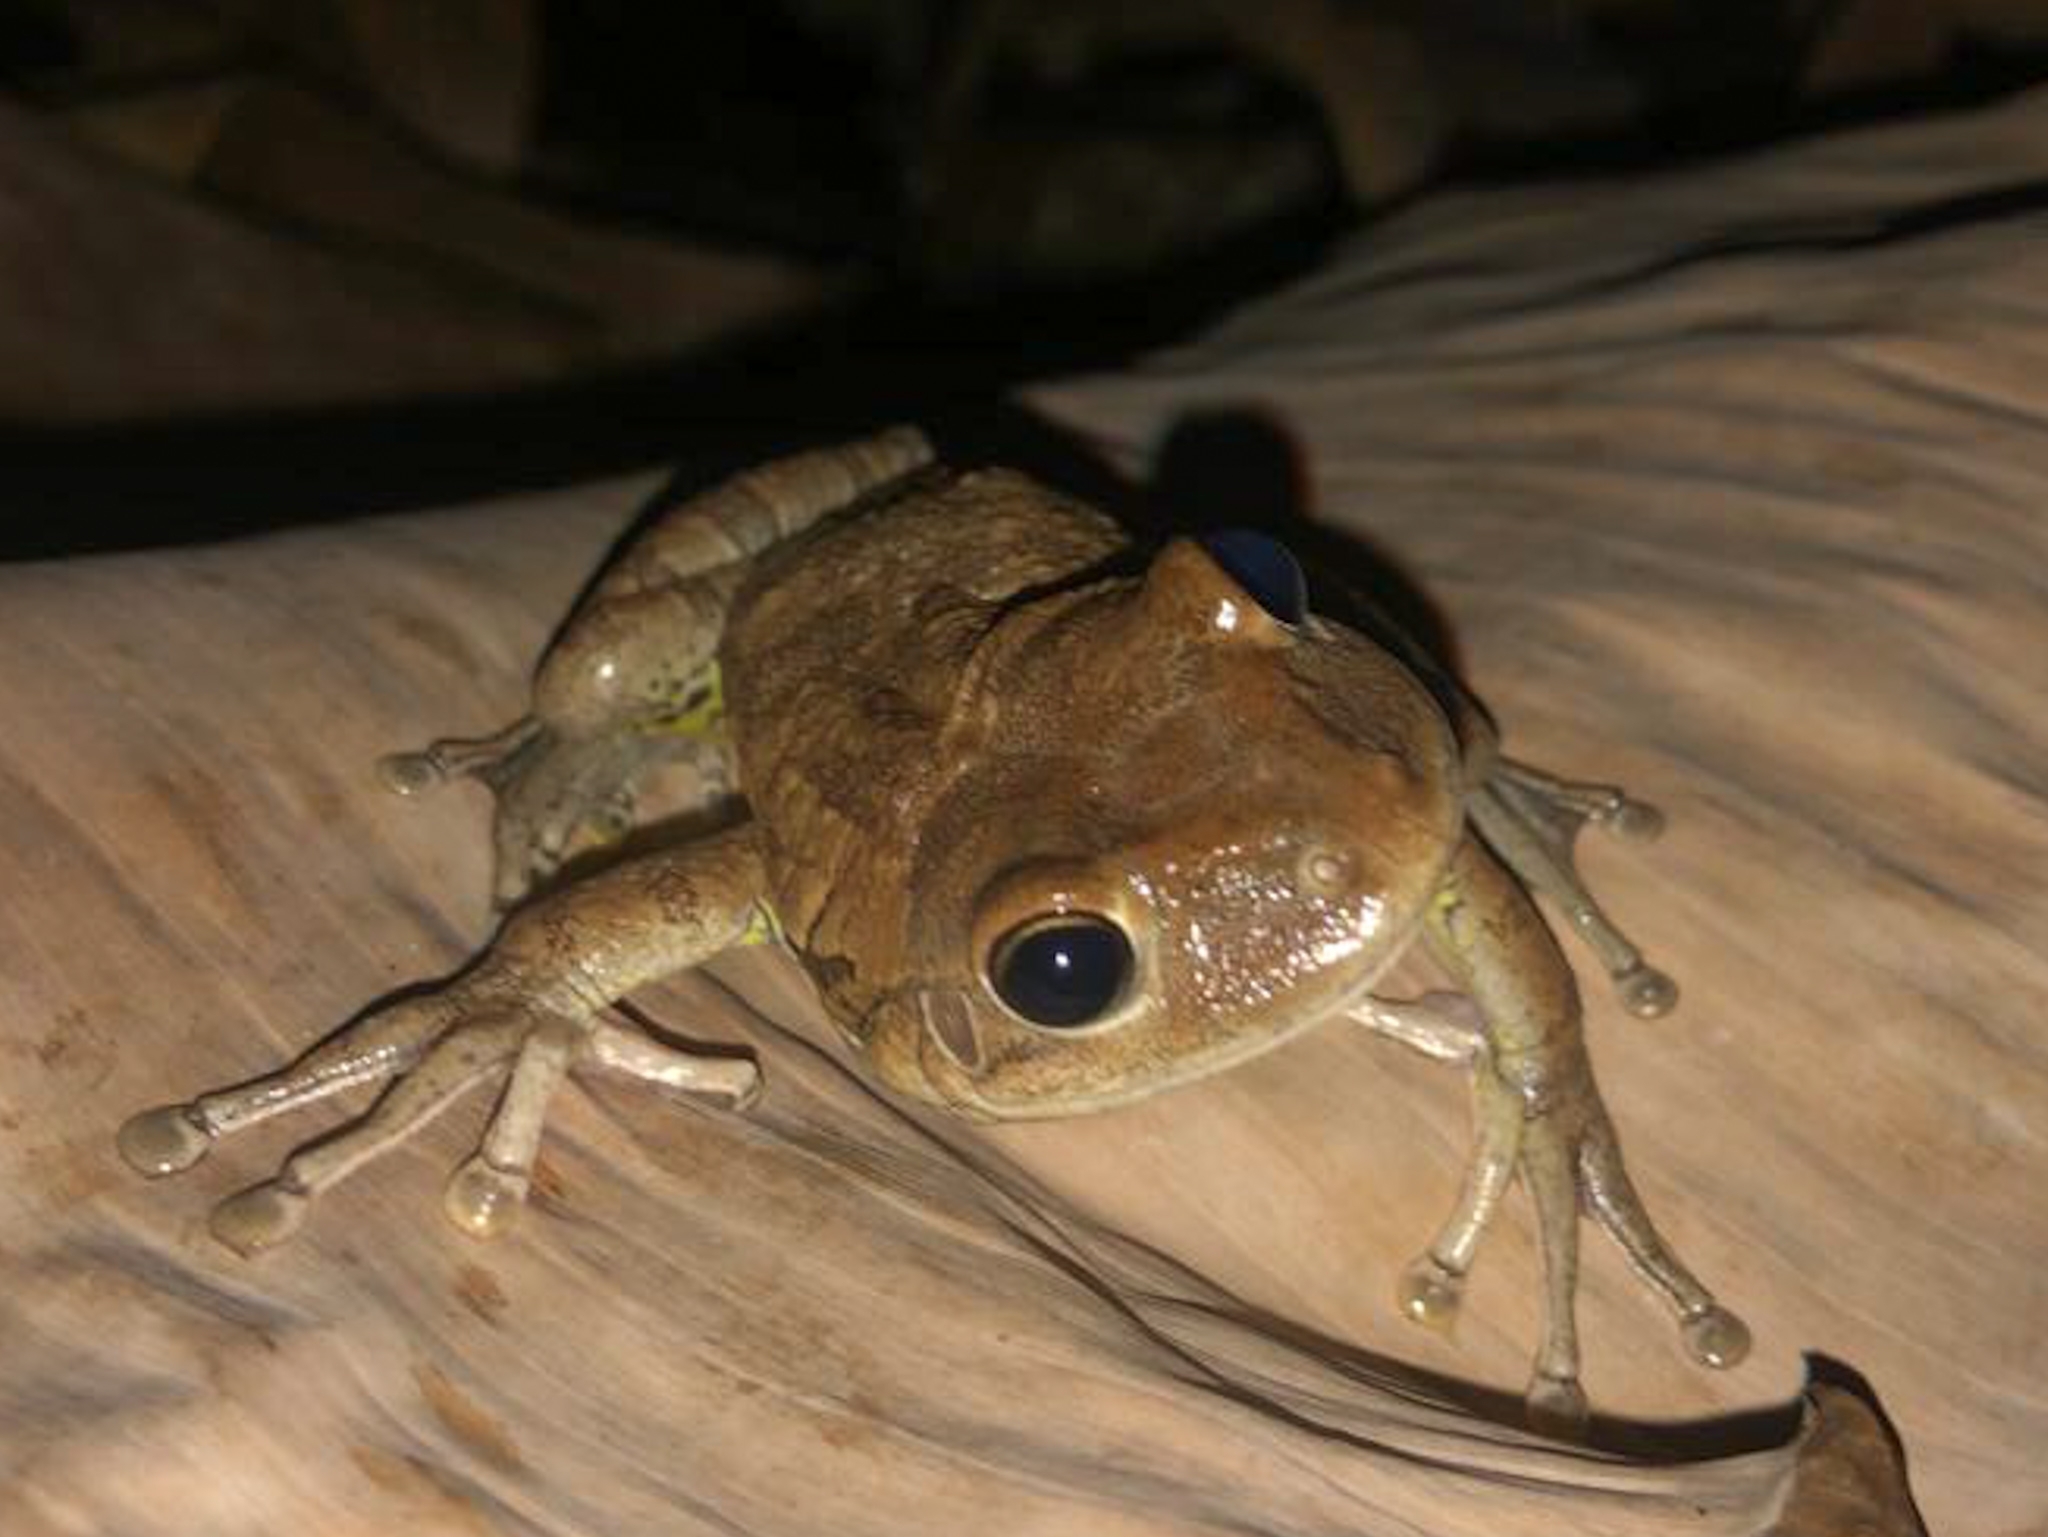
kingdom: Animalia
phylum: Chordata
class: Amphibia
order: Anura
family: Hylidae
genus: Osteopilus
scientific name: Osteopilus septentrionalis
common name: Cuban treefrog
